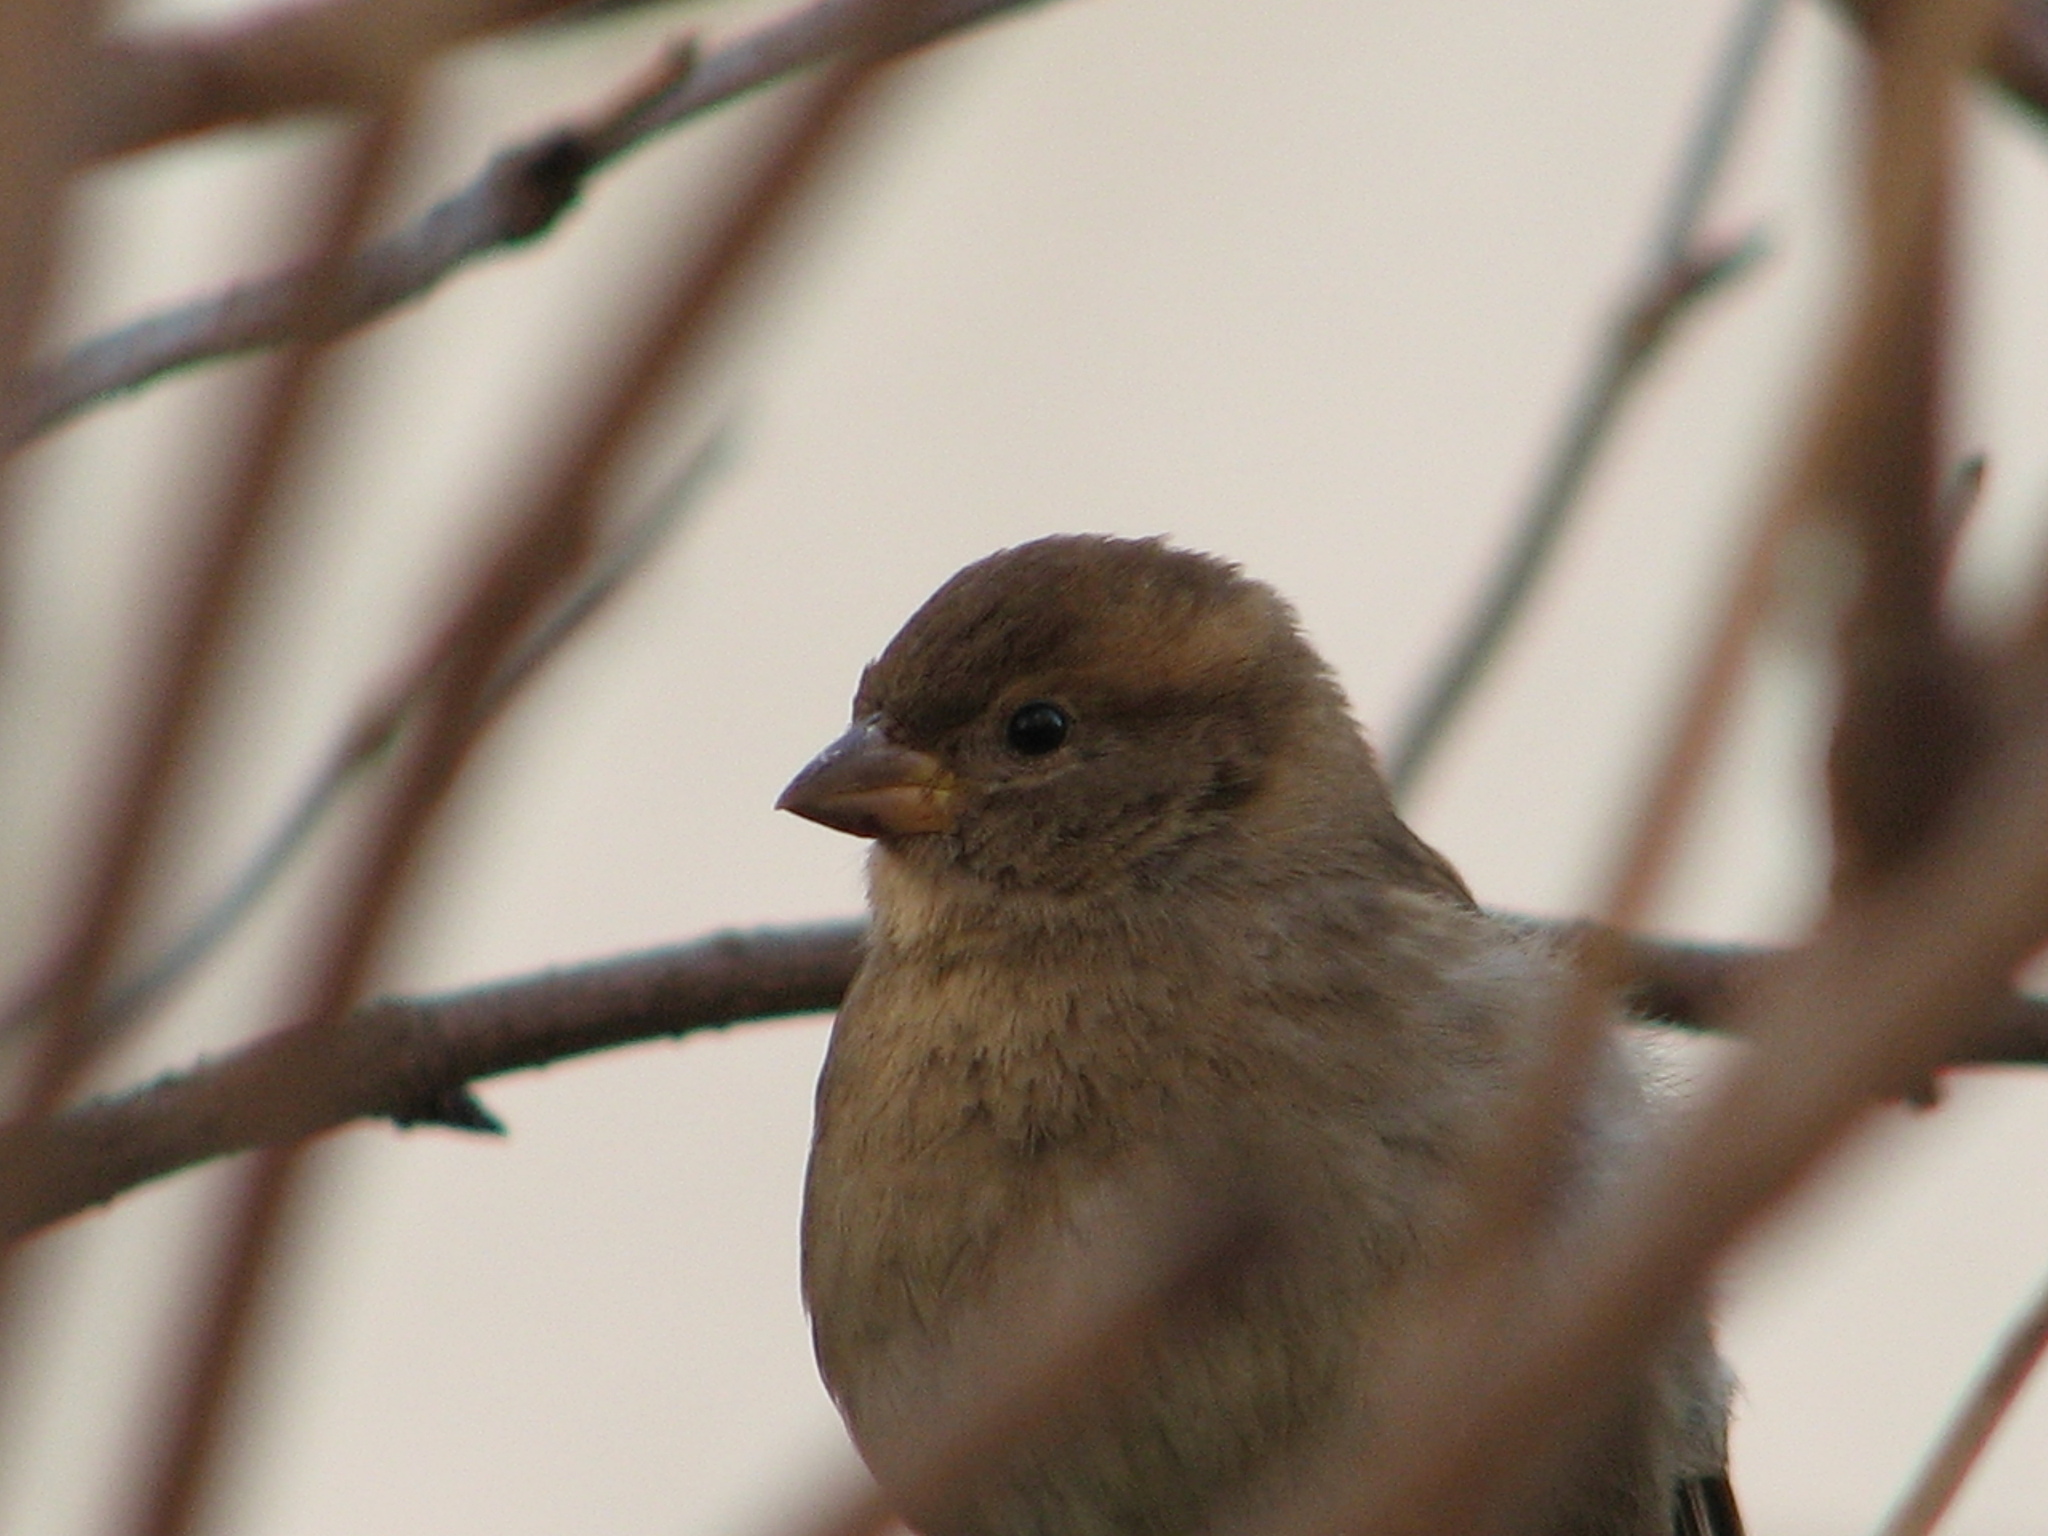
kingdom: Animalia
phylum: Chordata
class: Aves
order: Passeriformes
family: Passeridae
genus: Passer
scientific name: Passer domesticus
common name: House sparrow
